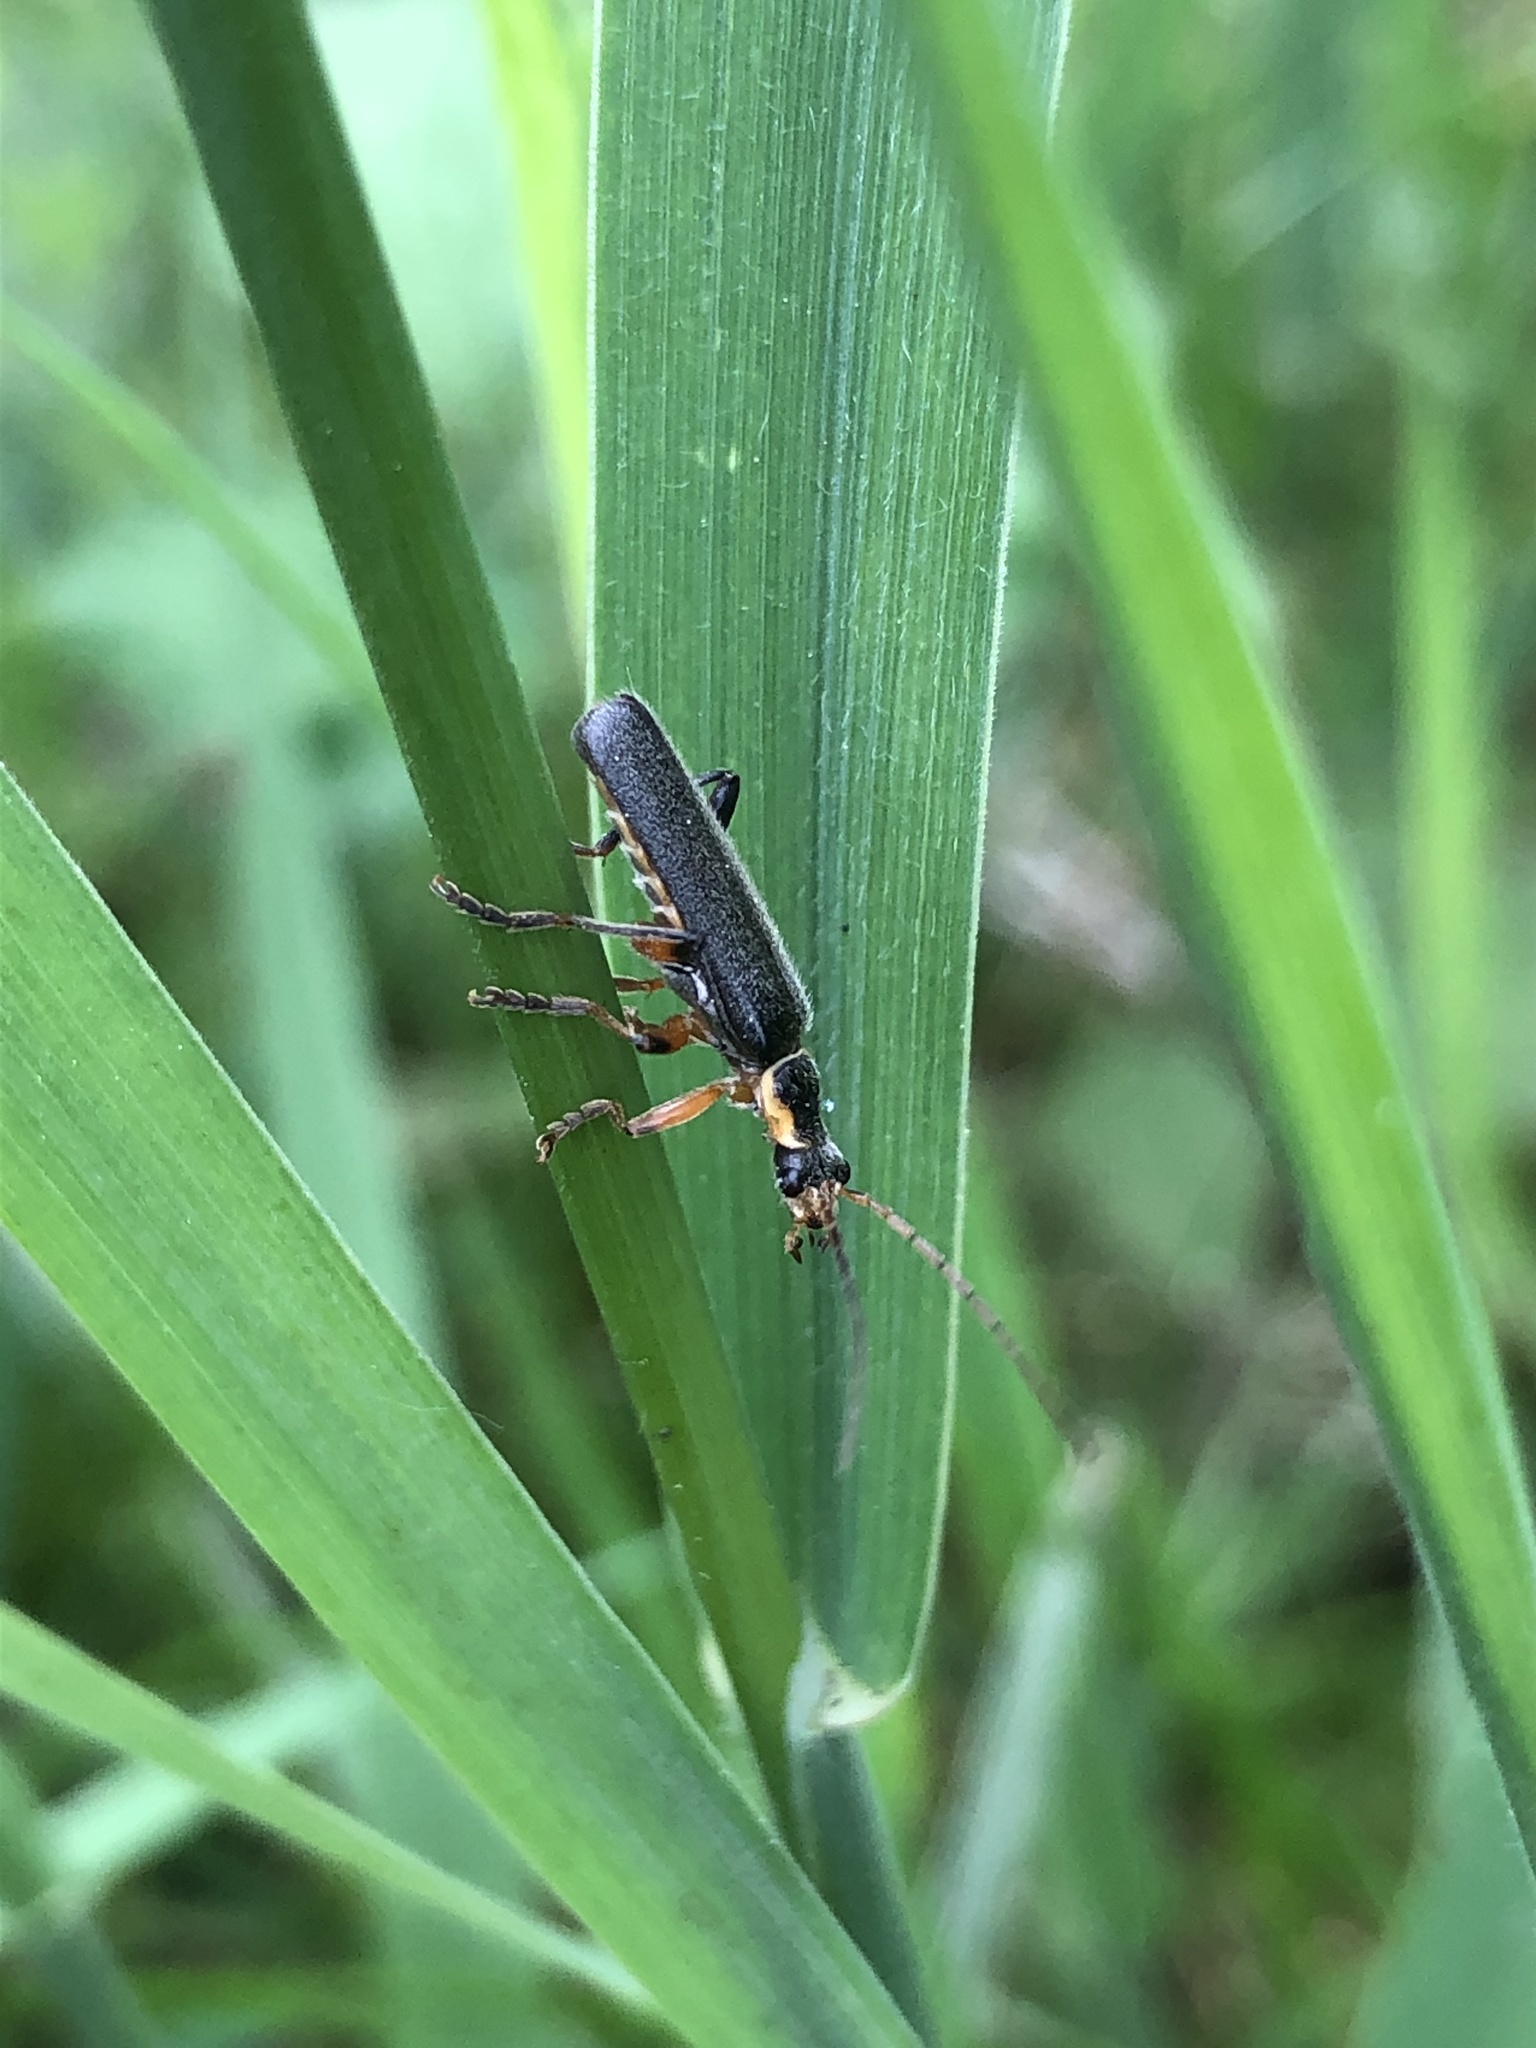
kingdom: Animalia
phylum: Arthropoda
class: Insecta
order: Coleoptera
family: Cantharidae
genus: Cantharis
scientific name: Cantharis nigricans
